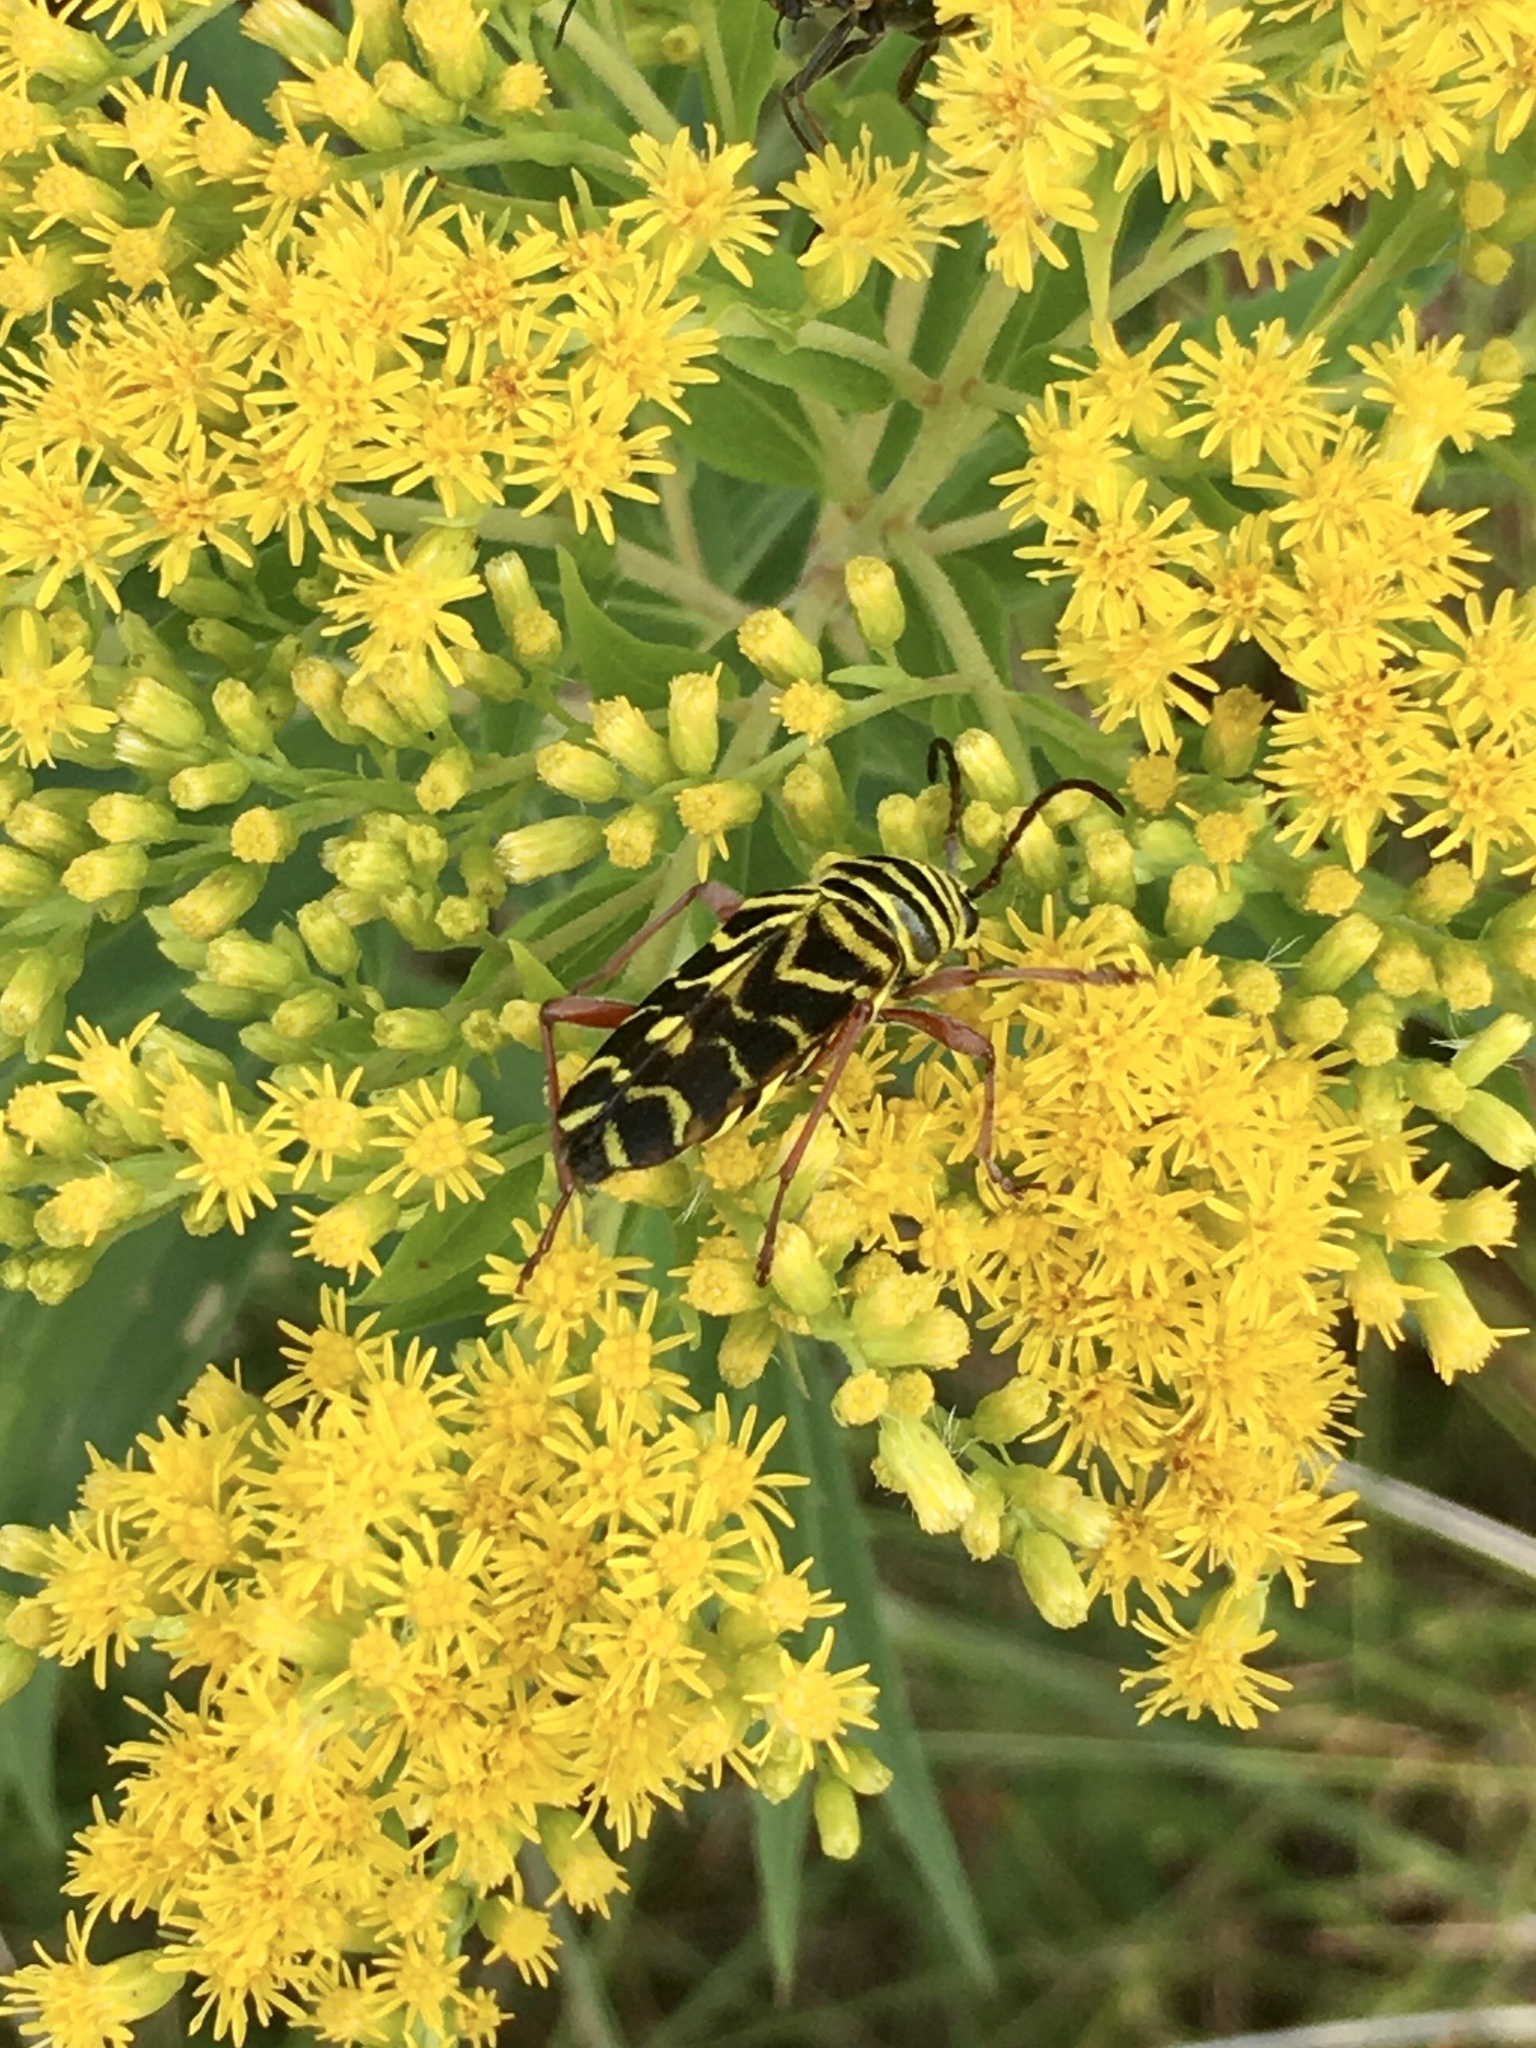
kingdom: Animalia
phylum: Arthropoda
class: Insecta
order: Coleoptera
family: Cerambycidae
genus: Megacyllene
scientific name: Megacyllene robiniae
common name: Locust borer
